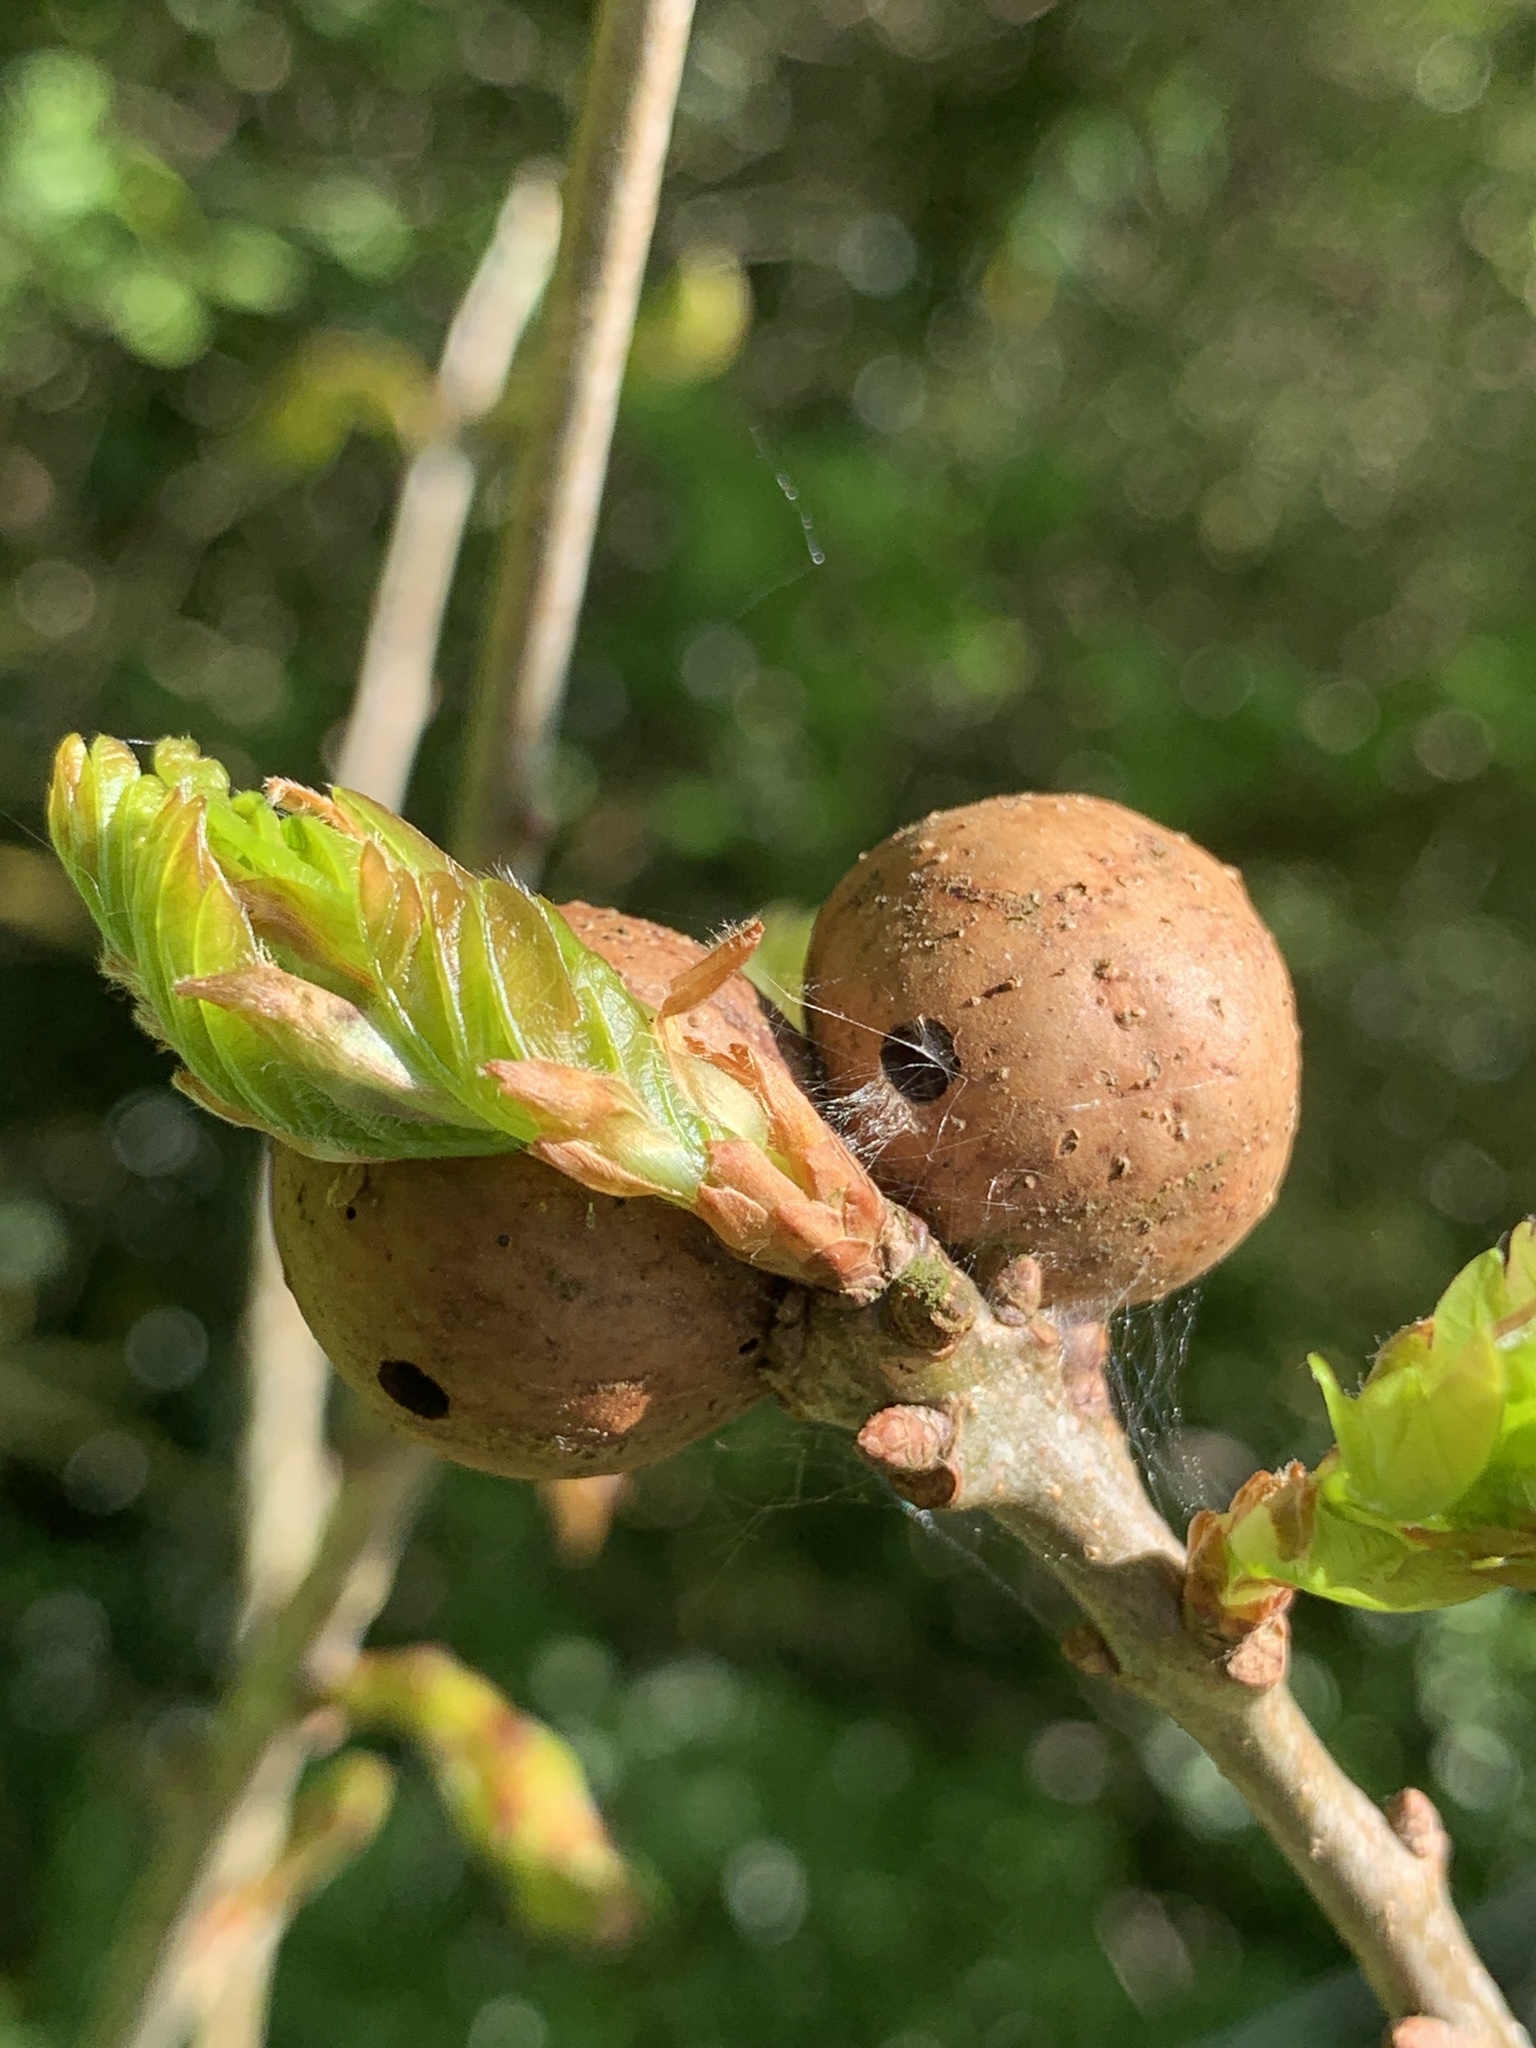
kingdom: Animalia
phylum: Arthropoda
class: Insecta
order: Hymenoptera
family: Cynipidae
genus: Andricus
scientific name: Andricus kollari
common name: Marble gall
